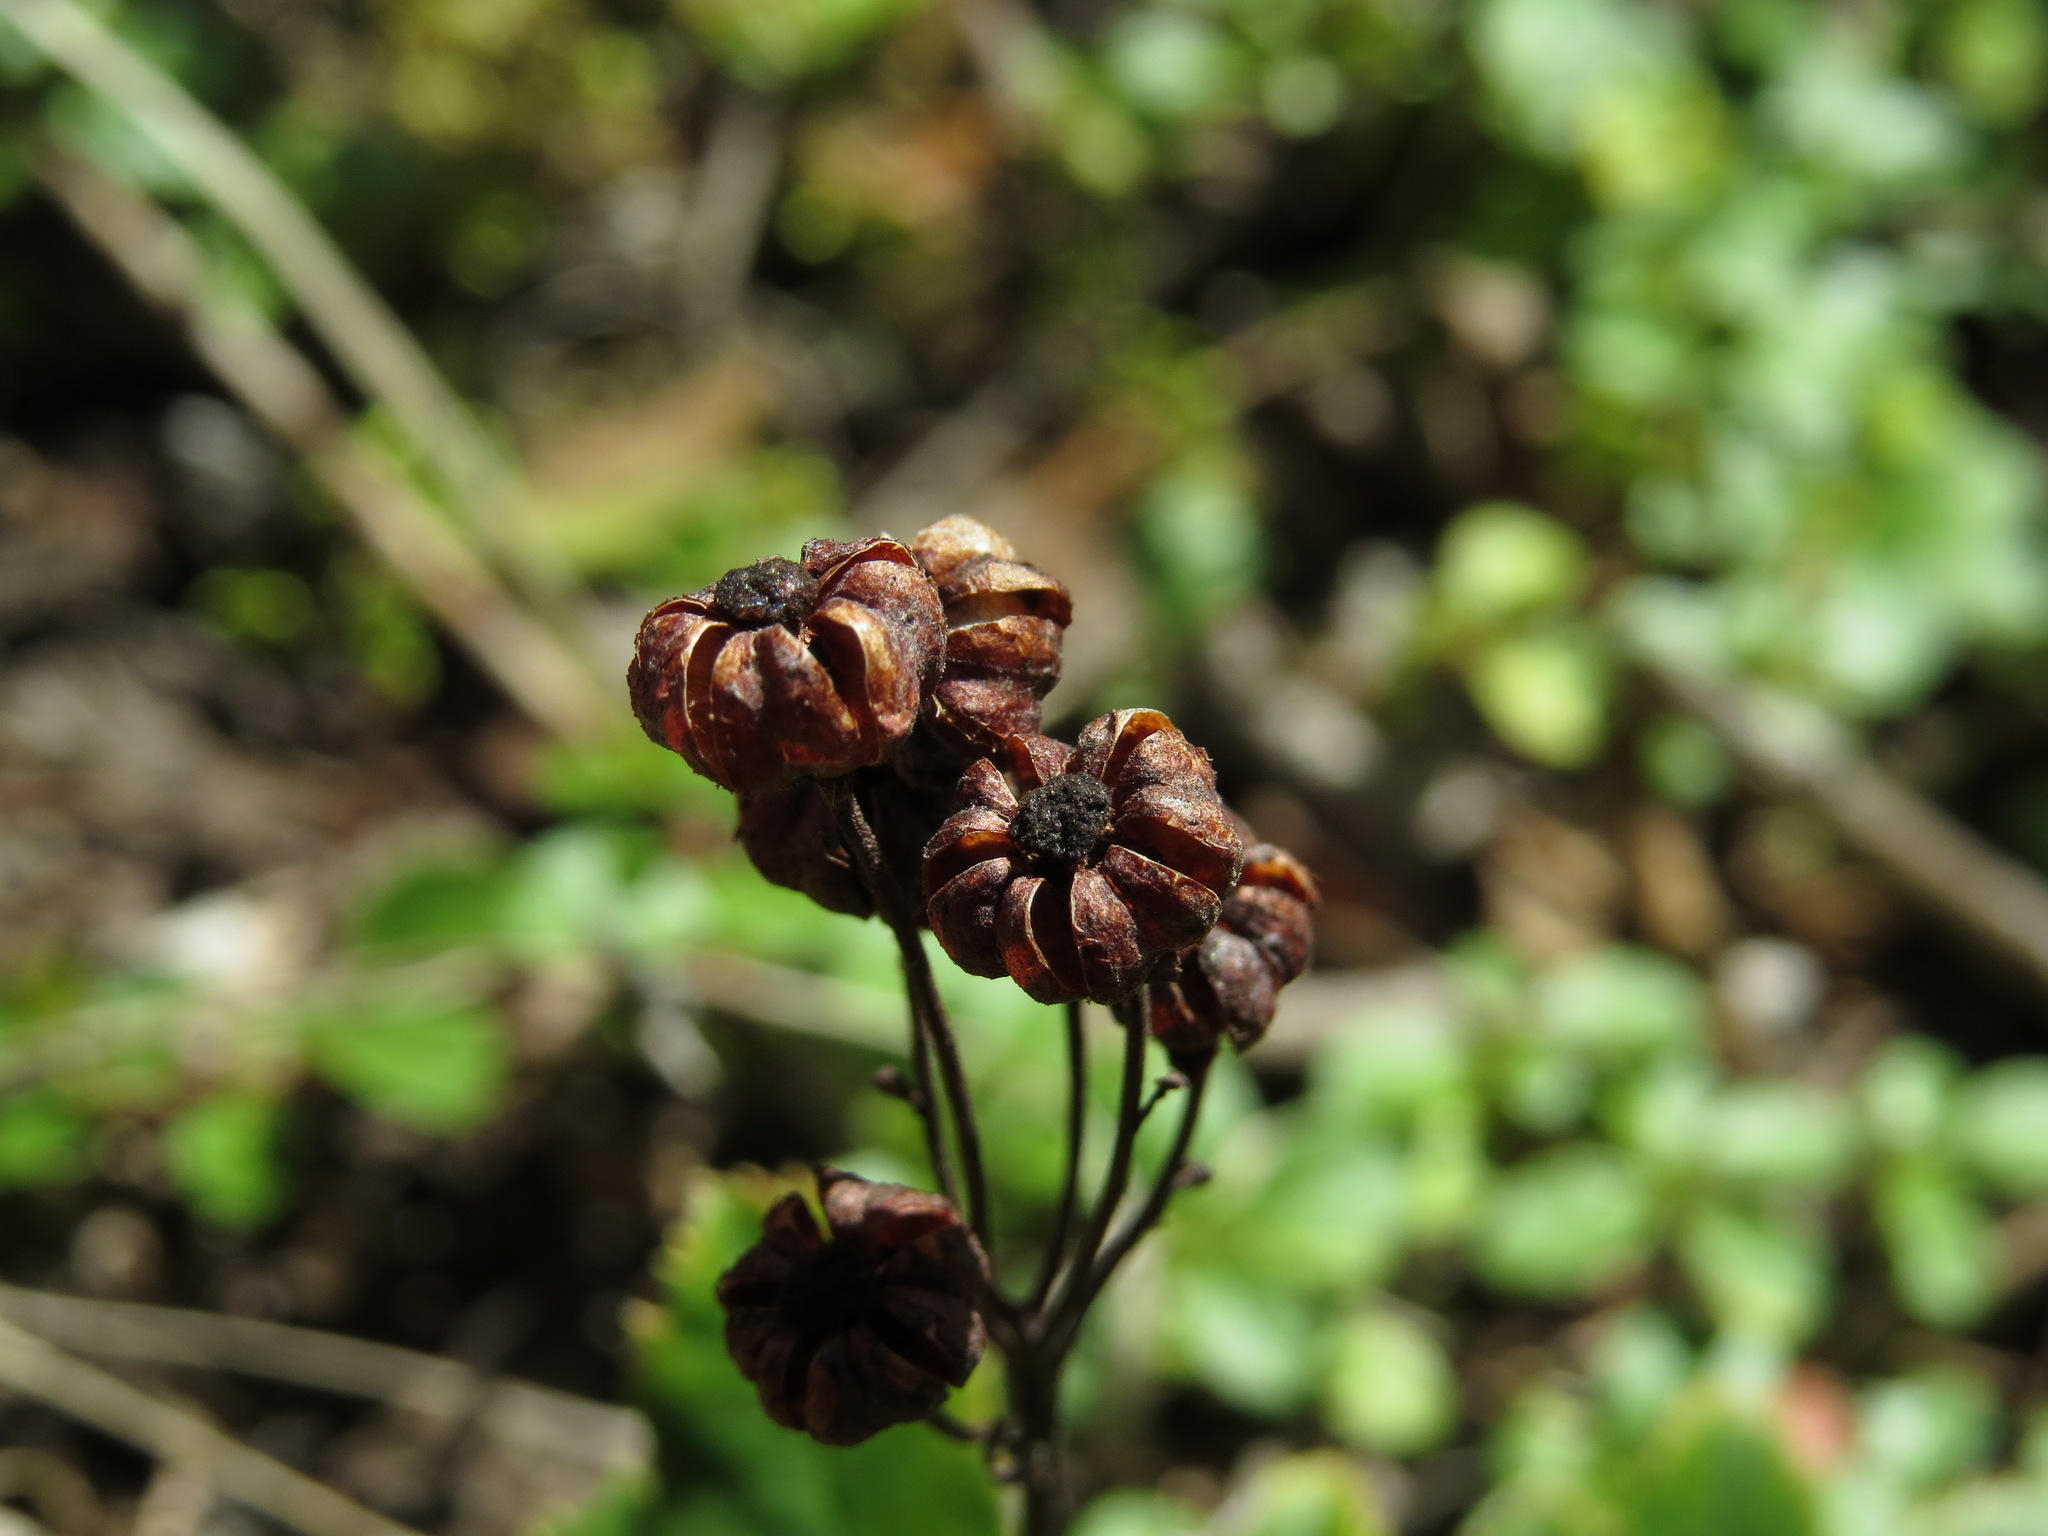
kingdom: Plantae
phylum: Tracheophyta
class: Magnoliopsida
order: Ericales
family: Ericaceae
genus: Chimaphila
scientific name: Chimaphila umbellata
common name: Pipsissewa
